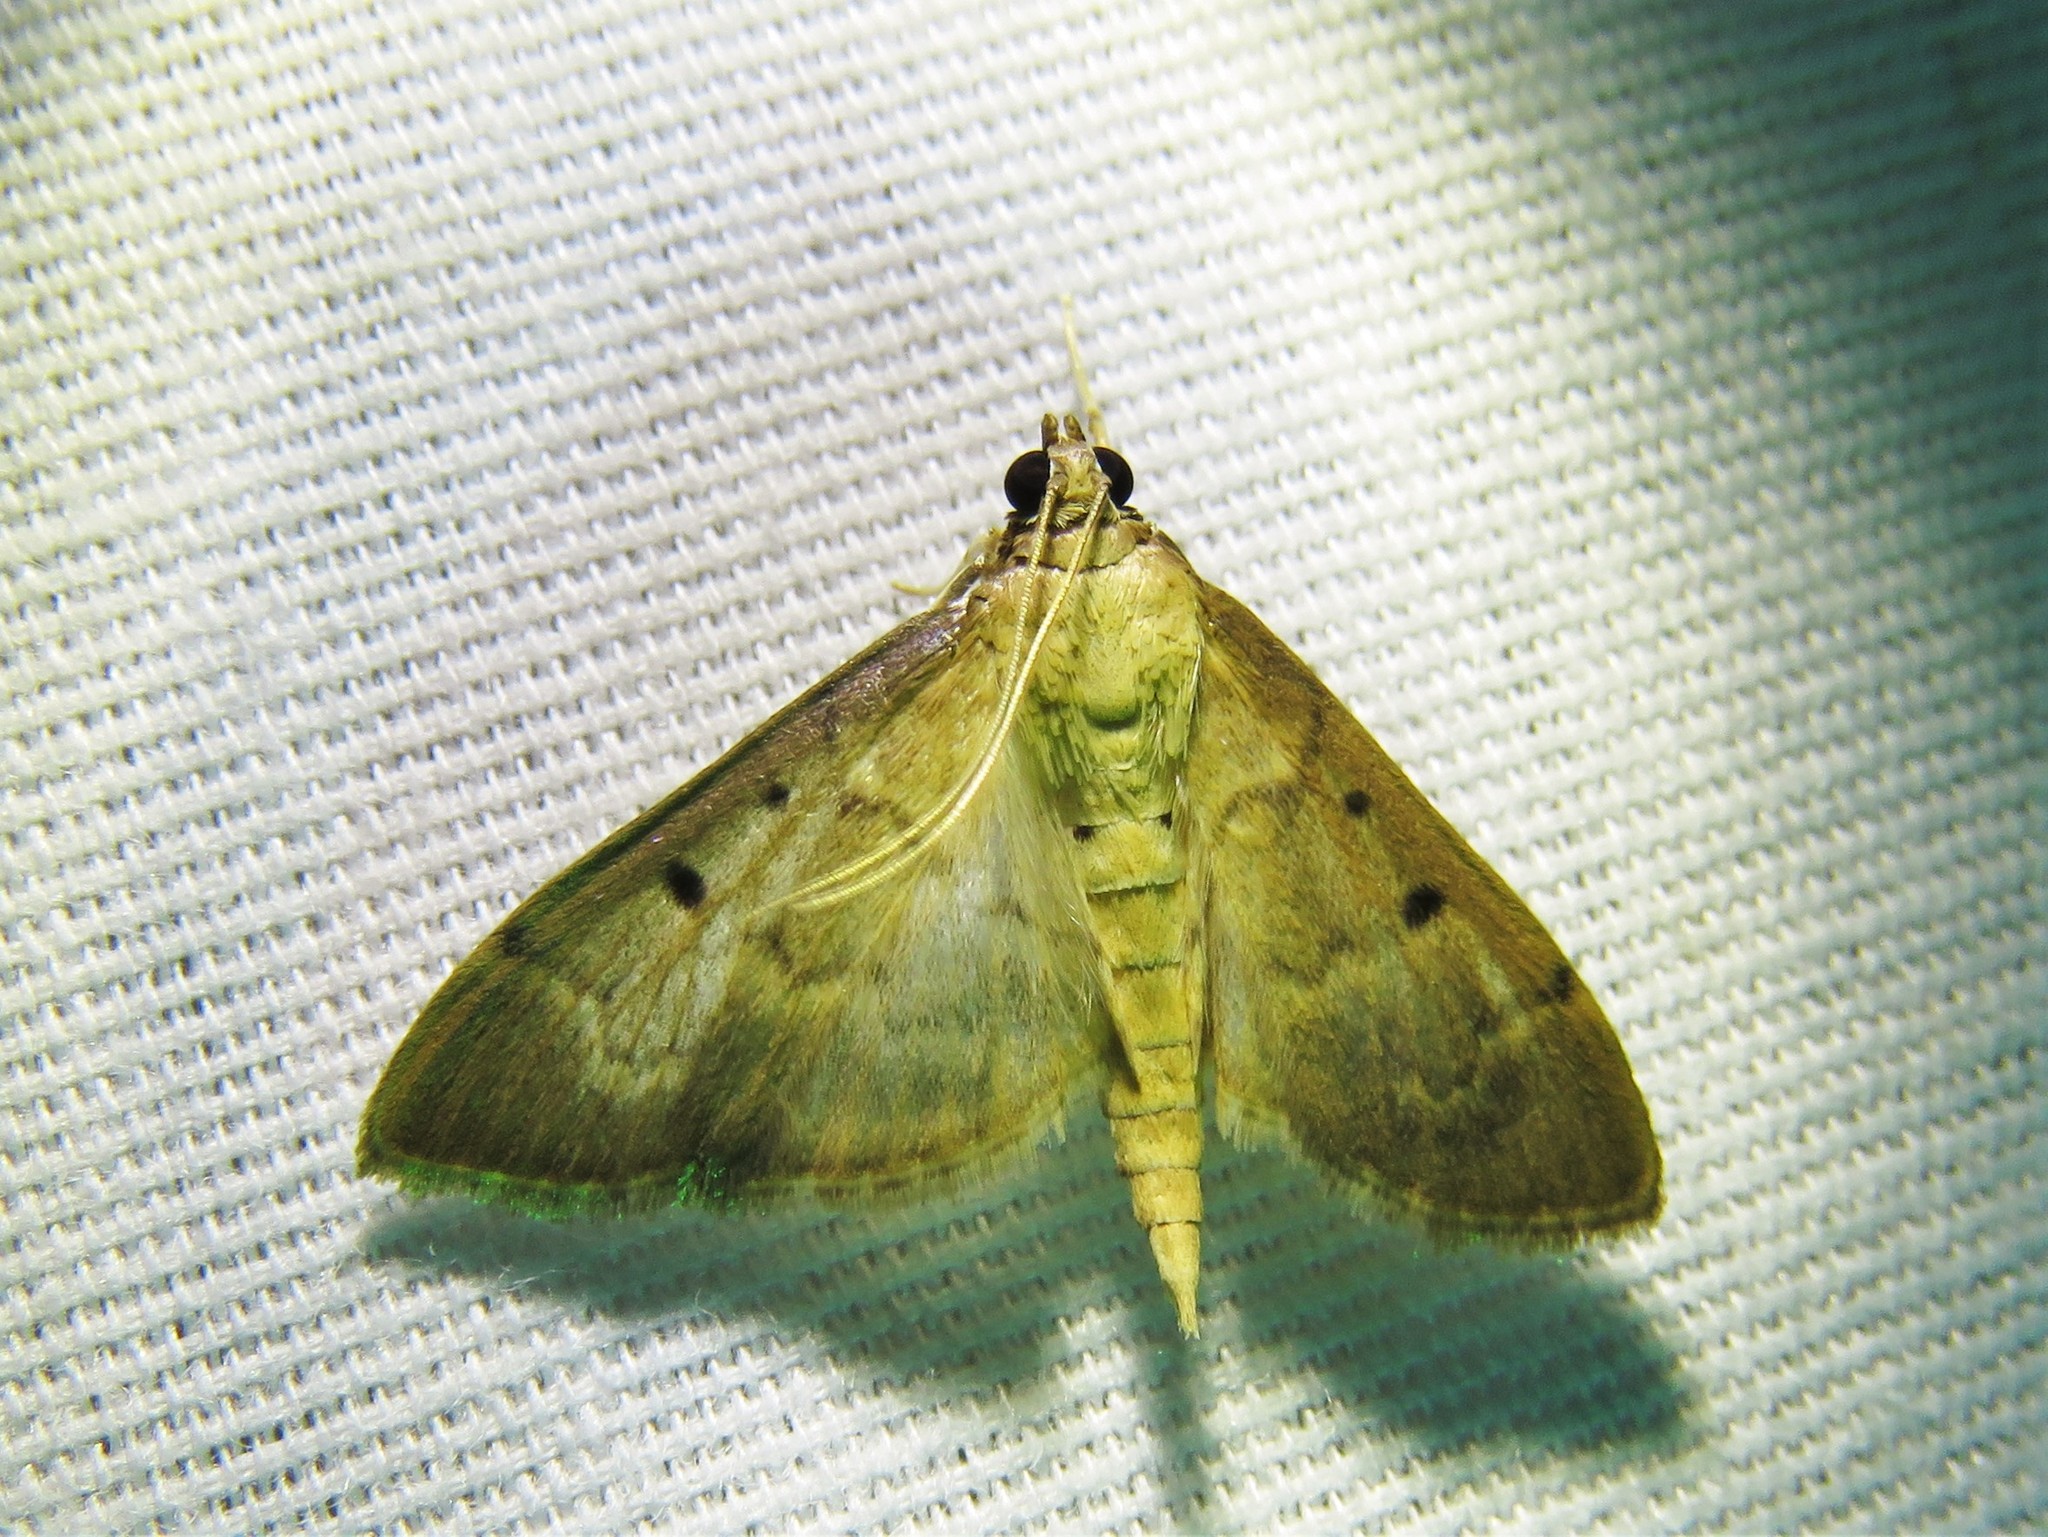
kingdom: Animalia
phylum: Arthropoda
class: Insecta
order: Lepidoptera
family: Crambidae
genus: Herpetogramma
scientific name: Herpetogramma bipunctalis
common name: Southern beet webworm
